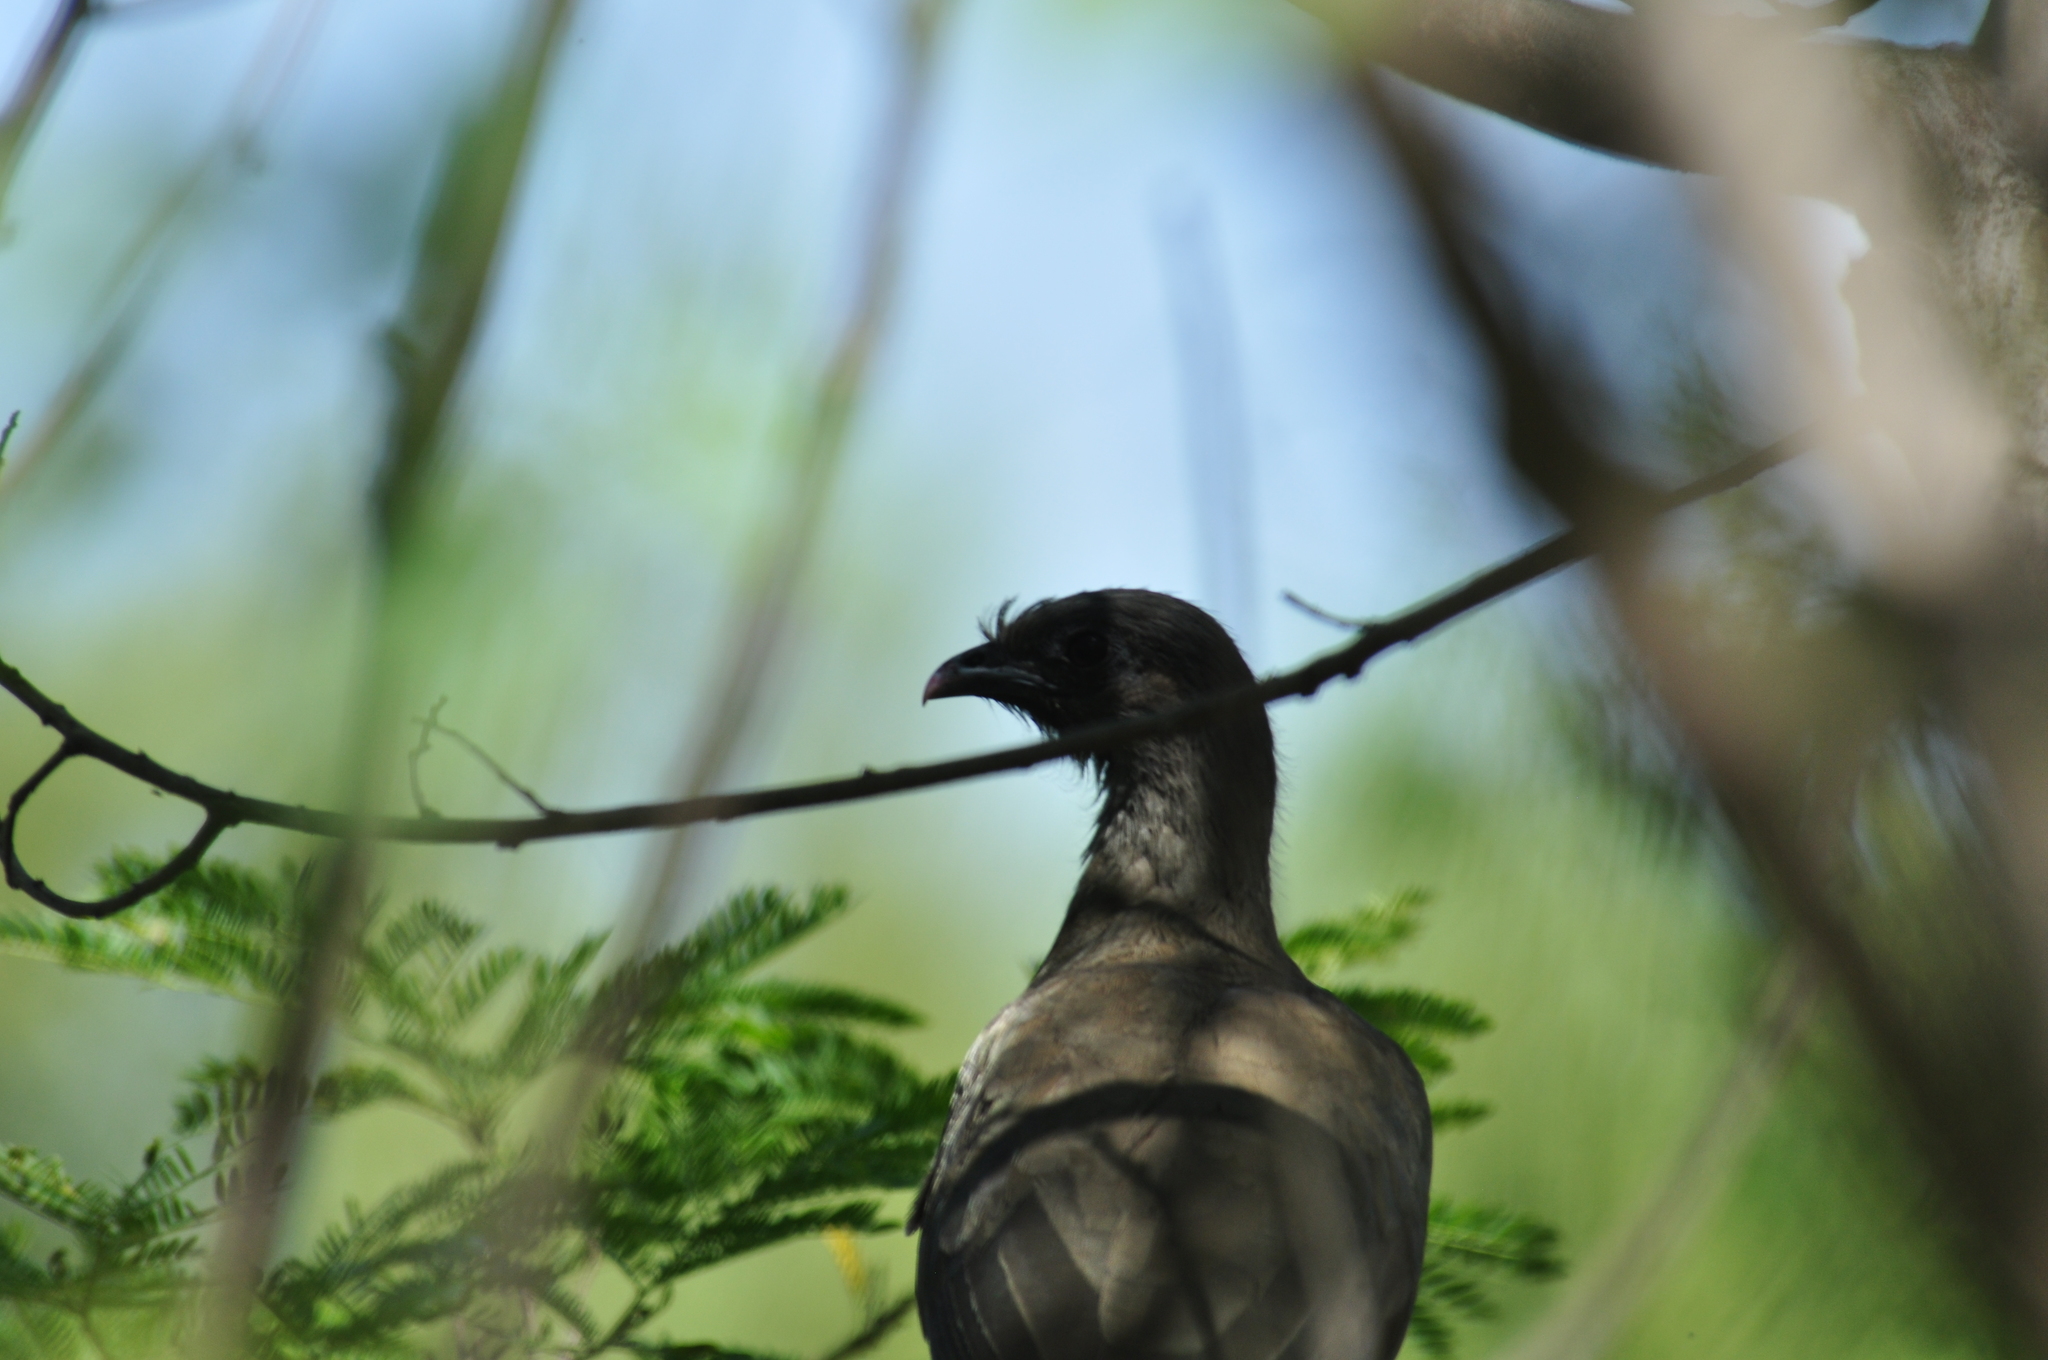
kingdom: Animalia
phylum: Chordata
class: Aves
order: Galliformes
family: Cracidae
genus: Ortalis
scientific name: Ortalis vetula
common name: Plain chachalaca
